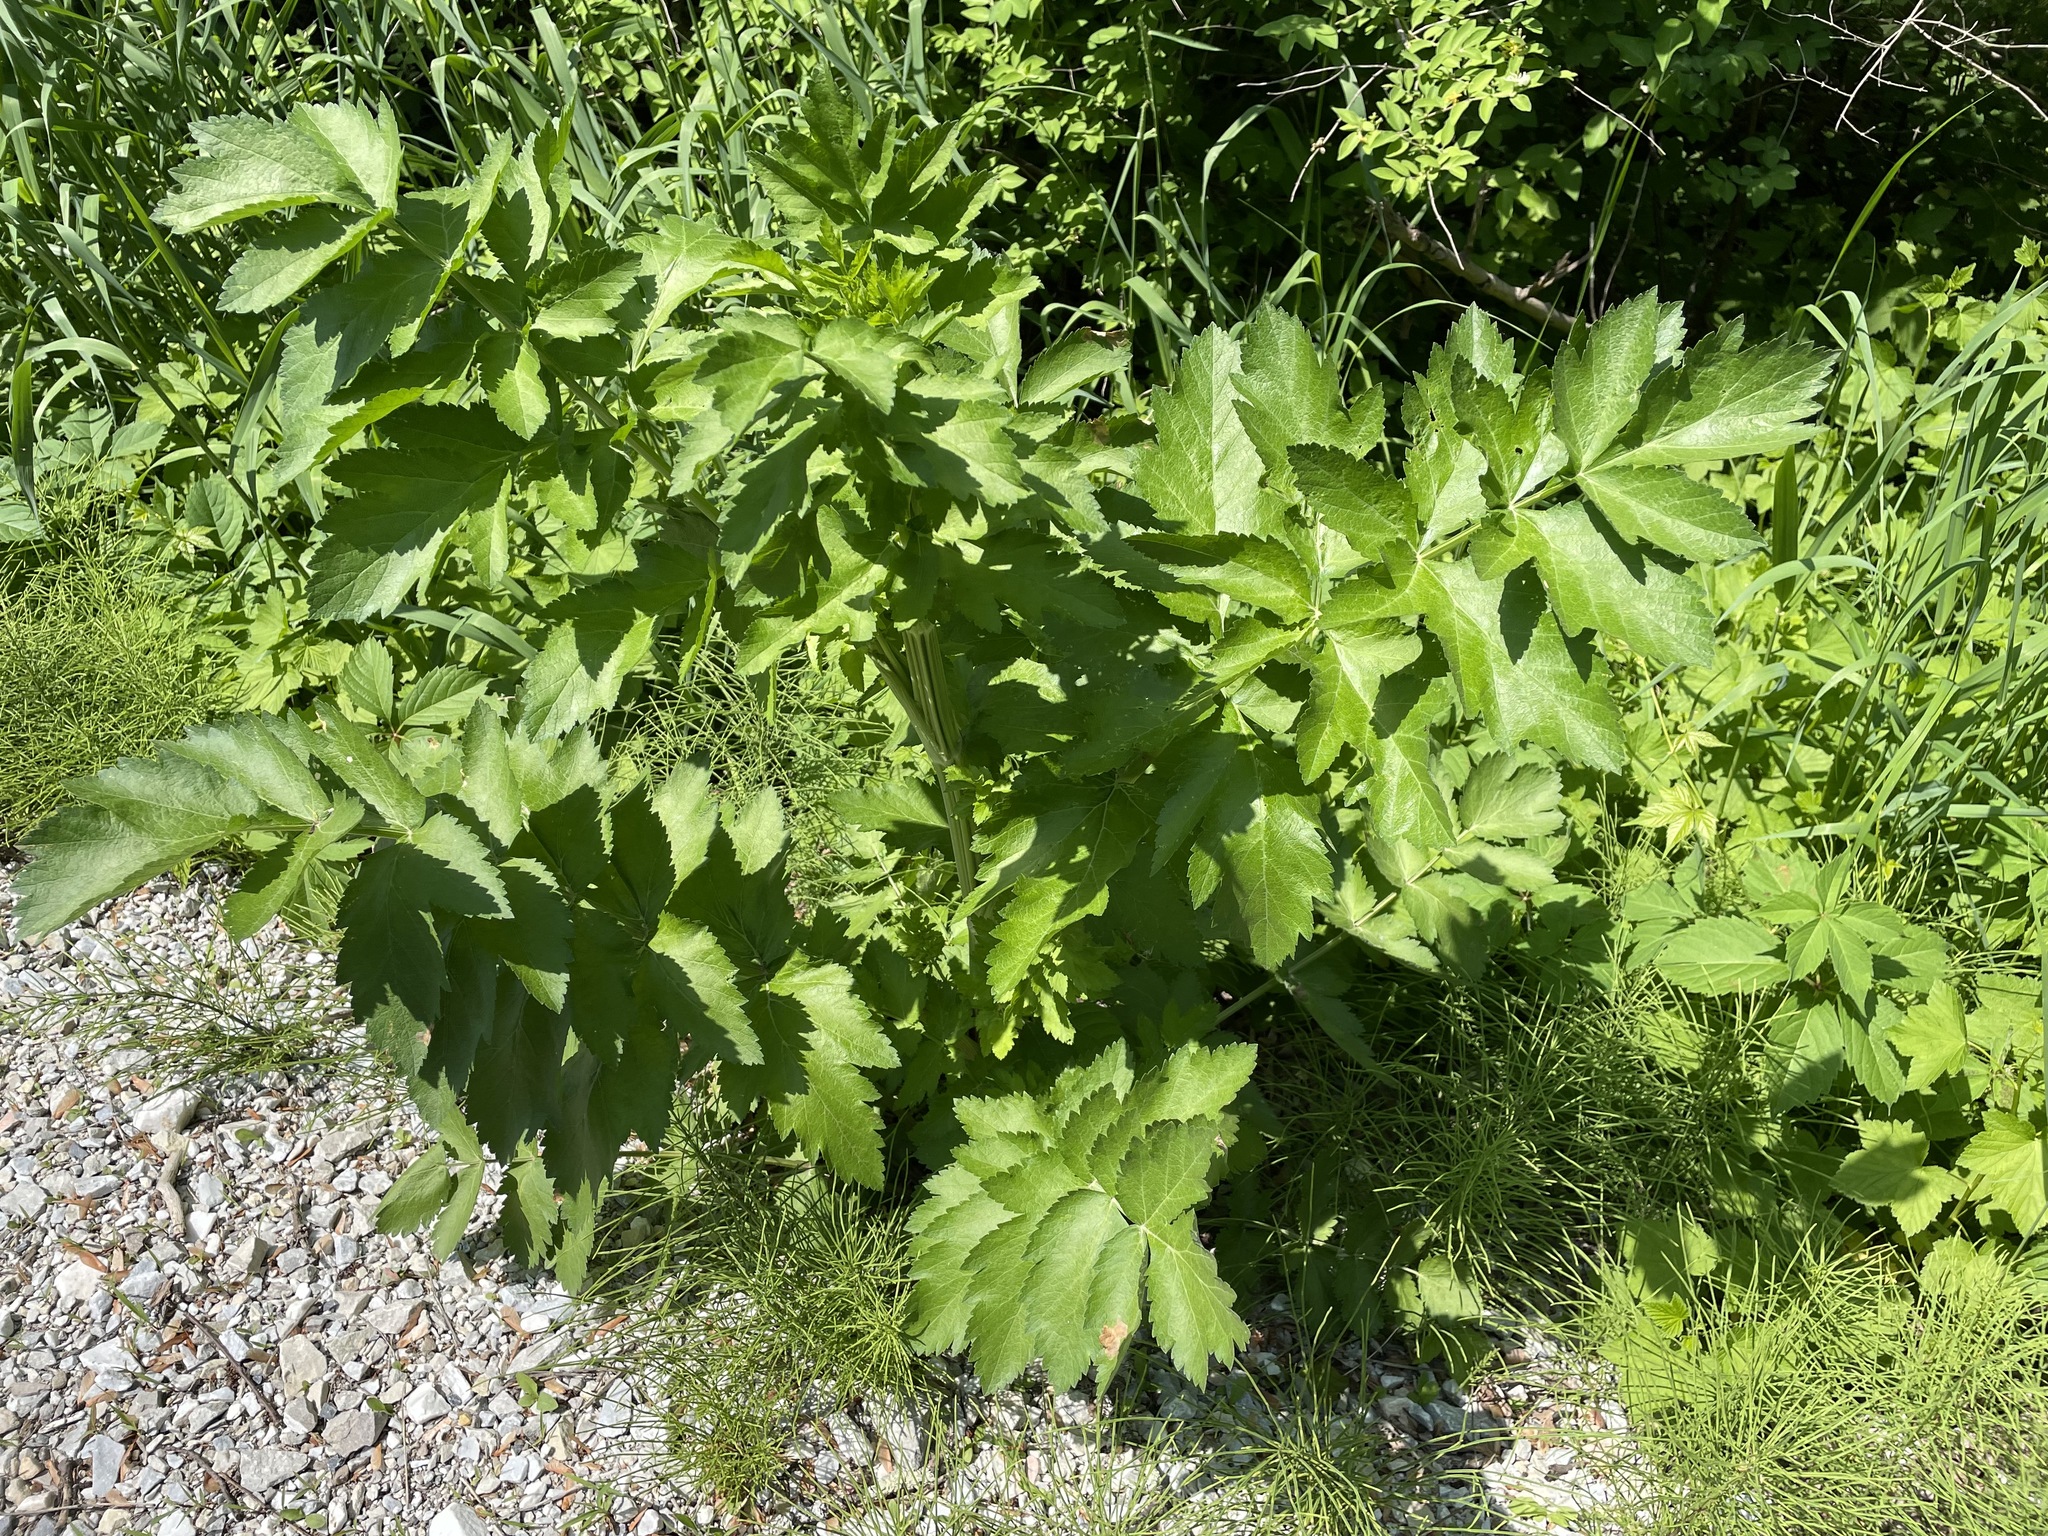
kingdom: Plantae
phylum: Tracheophyta
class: Magnoliopsida
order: Apiales
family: Apiaceae
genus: Pastinaca
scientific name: Pastinaca sativa
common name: Wild parsnip
